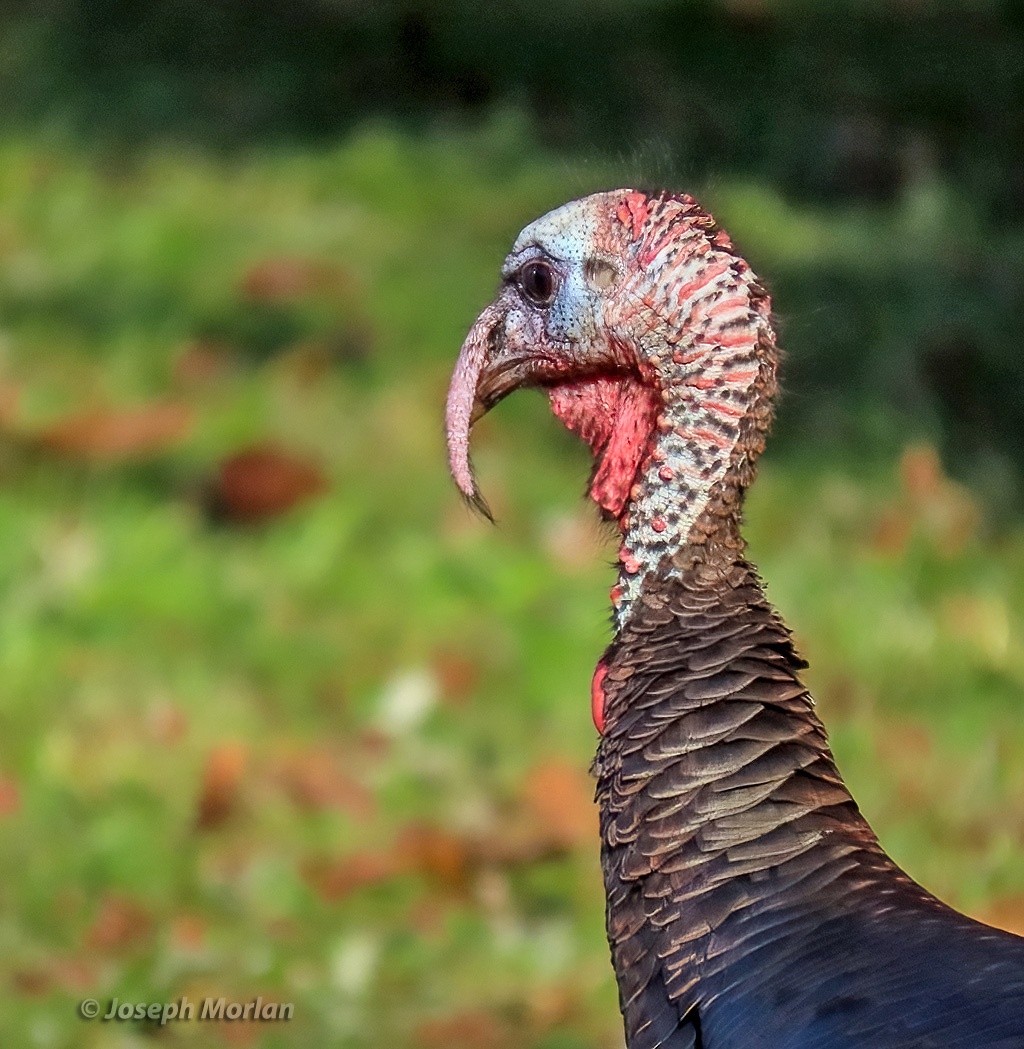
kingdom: Animalia
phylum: Chordata
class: Aves
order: Galliformes
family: Phasianidae
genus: Meleagris
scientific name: Meleagris gallopavo
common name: Wild turkey
